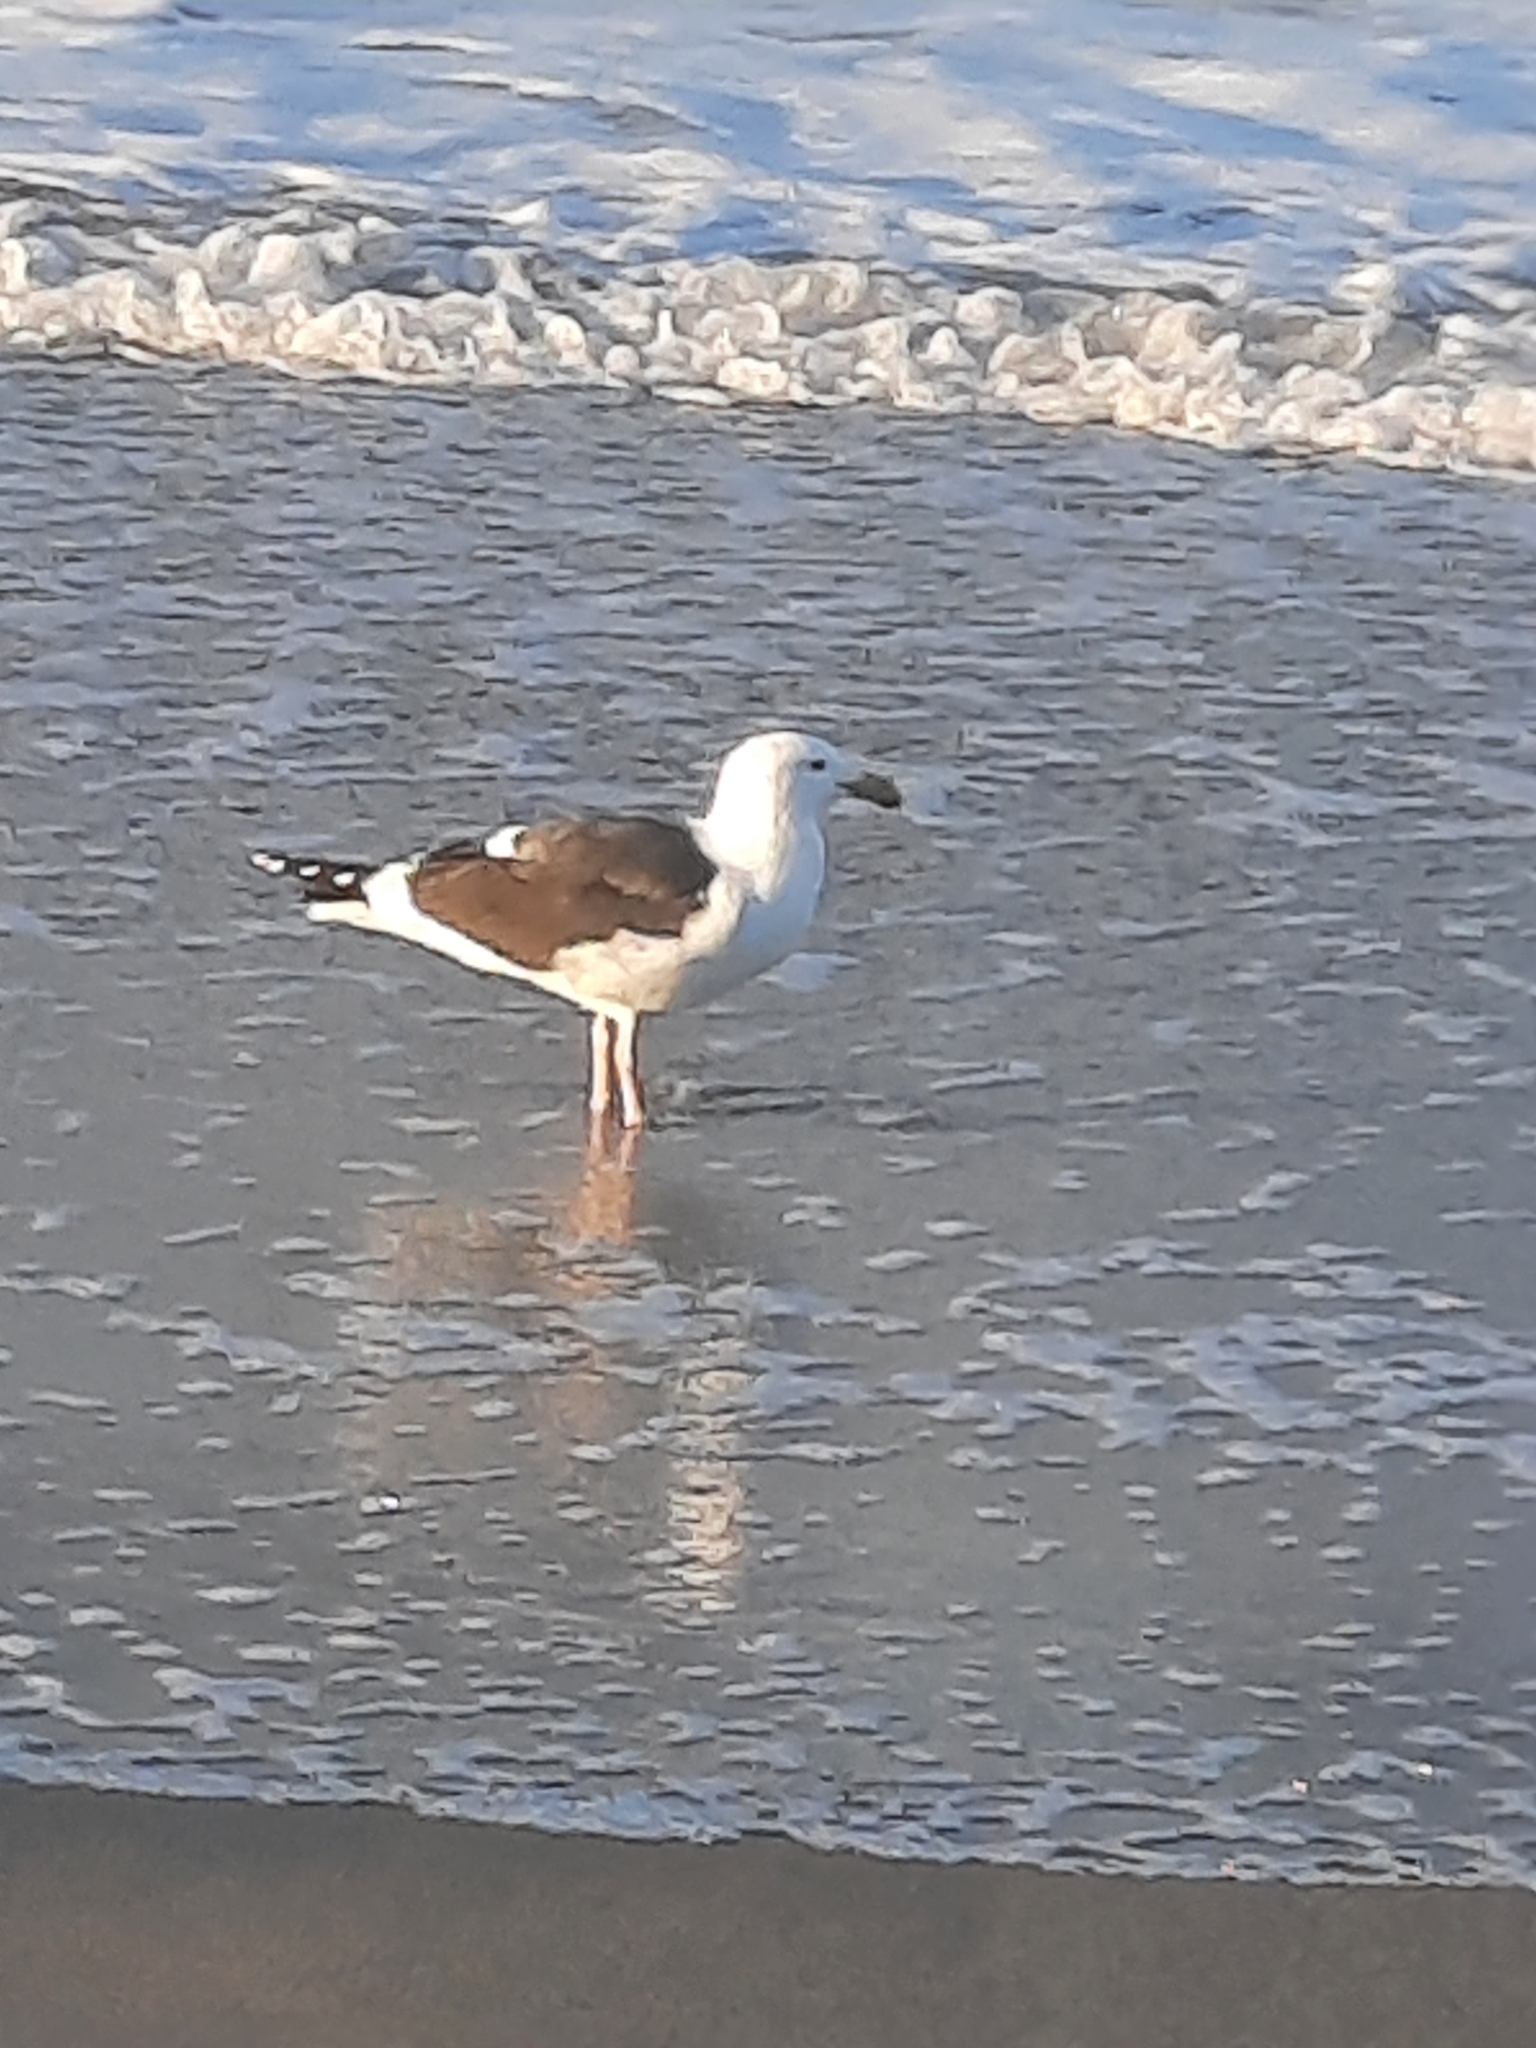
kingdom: Animalia
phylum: Chordata
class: Aves
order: Charadriiformes
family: Laridae
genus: Larus
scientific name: Larus occidentalis
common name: Western gull
